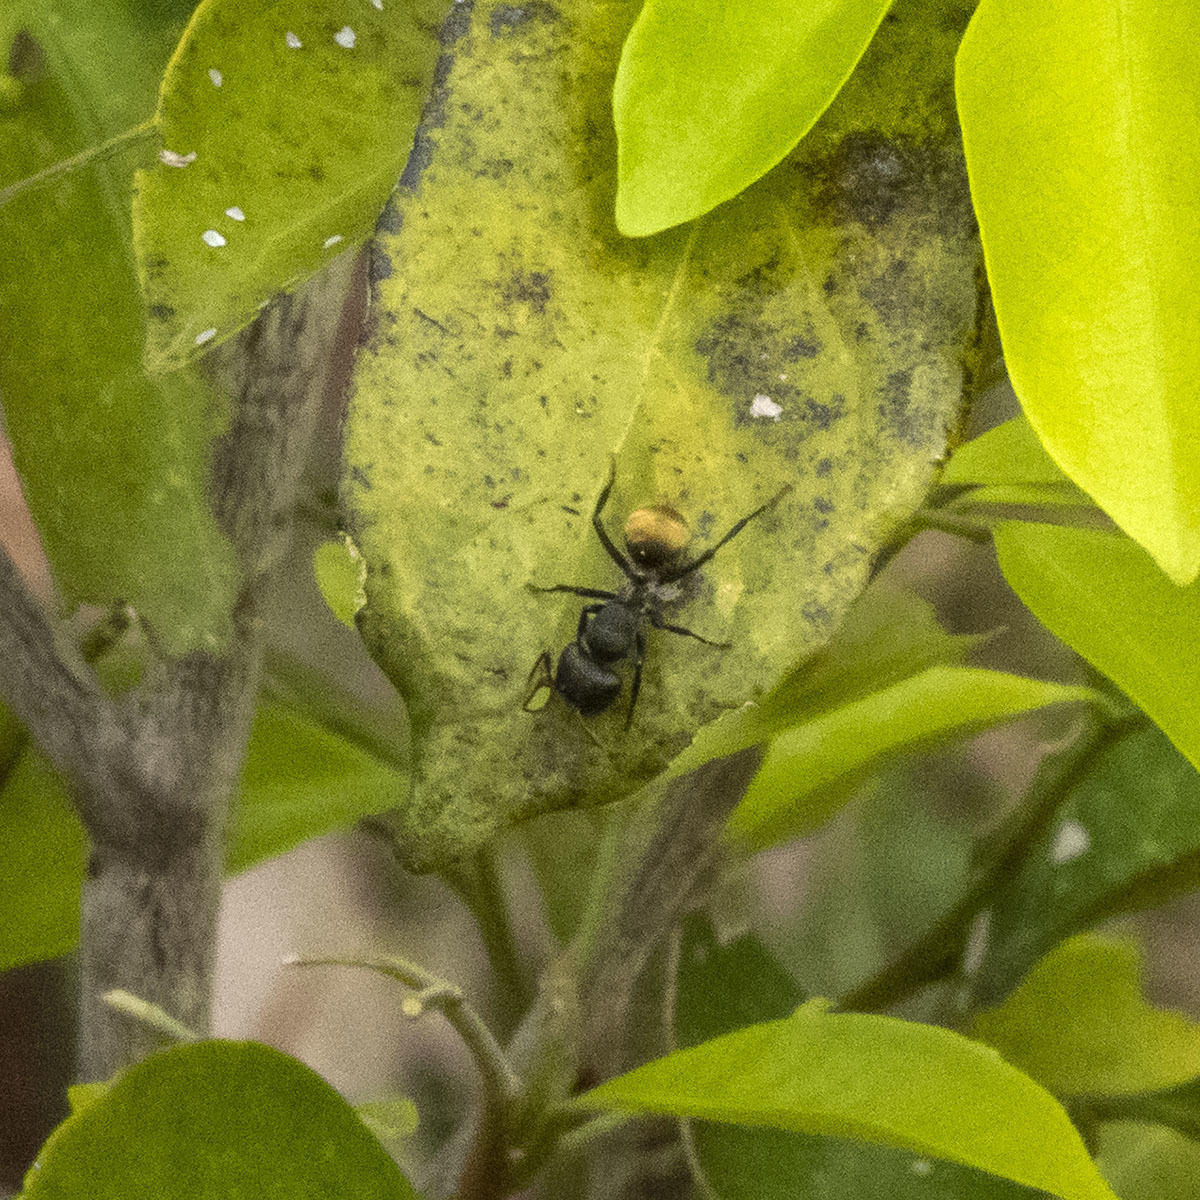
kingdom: Animalia
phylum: Arthropoda
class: Insecta
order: Hymenoptera
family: Formicidae
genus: Camponotus
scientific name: Camponotus sericeus
